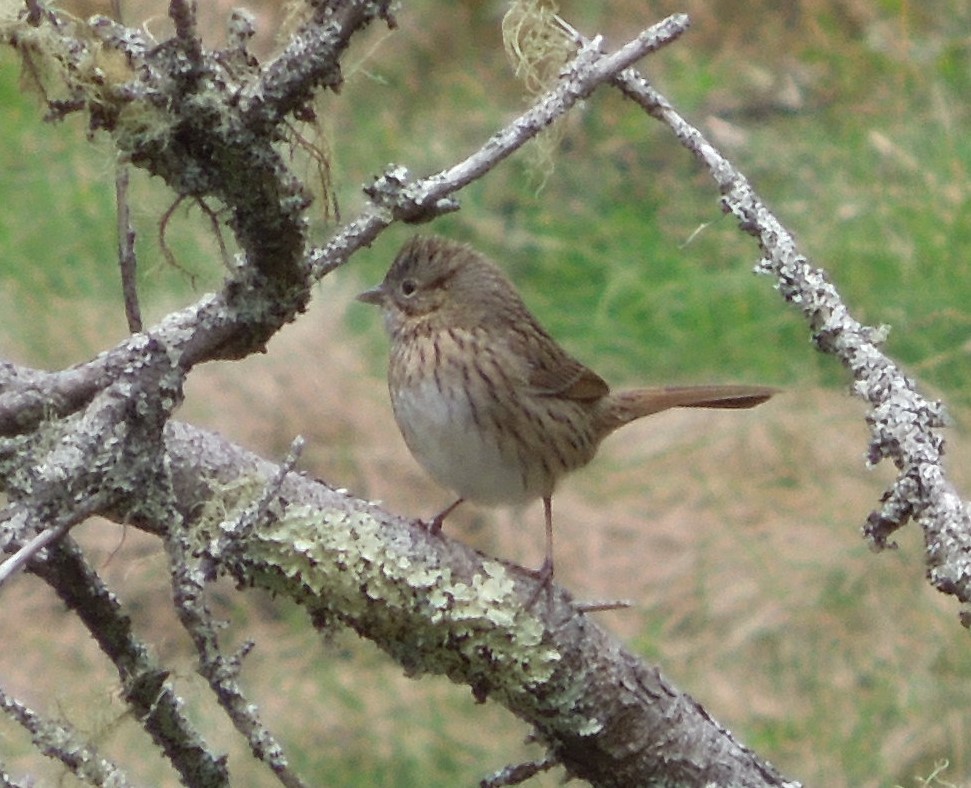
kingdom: Animalia
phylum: Chordata
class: Aves
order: Passeriformes
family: Passerellidae
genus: Melospiza
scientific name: Melospiza lincolnii
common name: Lincoln's sparrow
